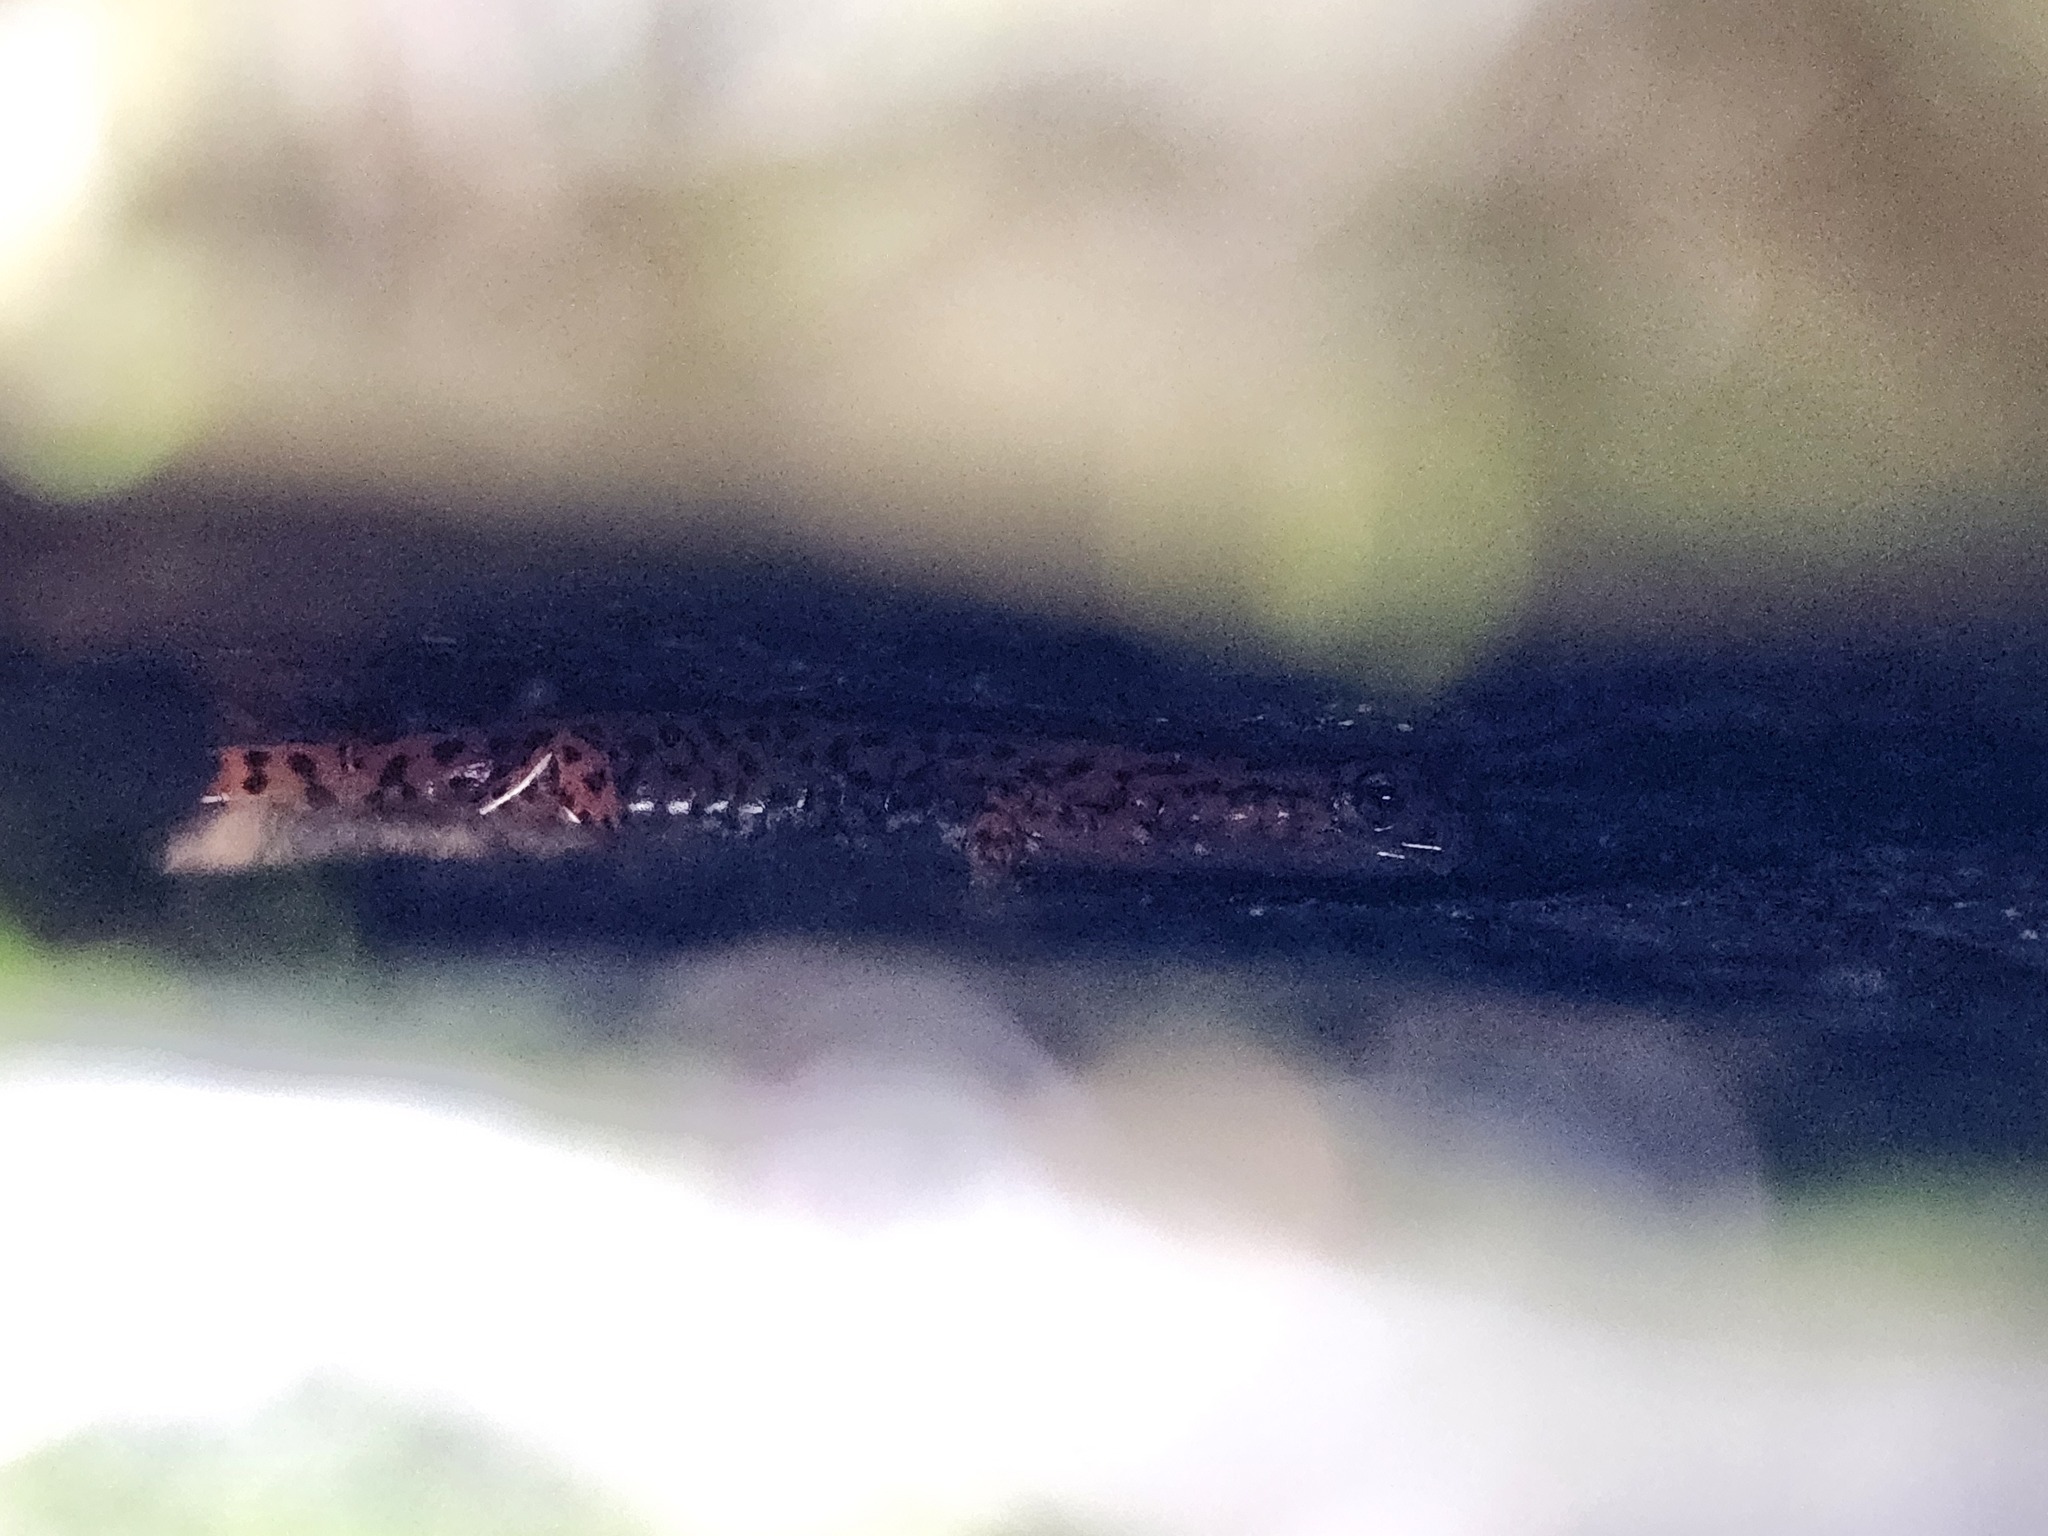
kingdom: Animalia
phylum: Chordata
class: Amphibia
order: Caudata
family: Plethodontidae
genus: Eurycea
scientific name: Eurycea lucifuga
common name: Cave salamander
